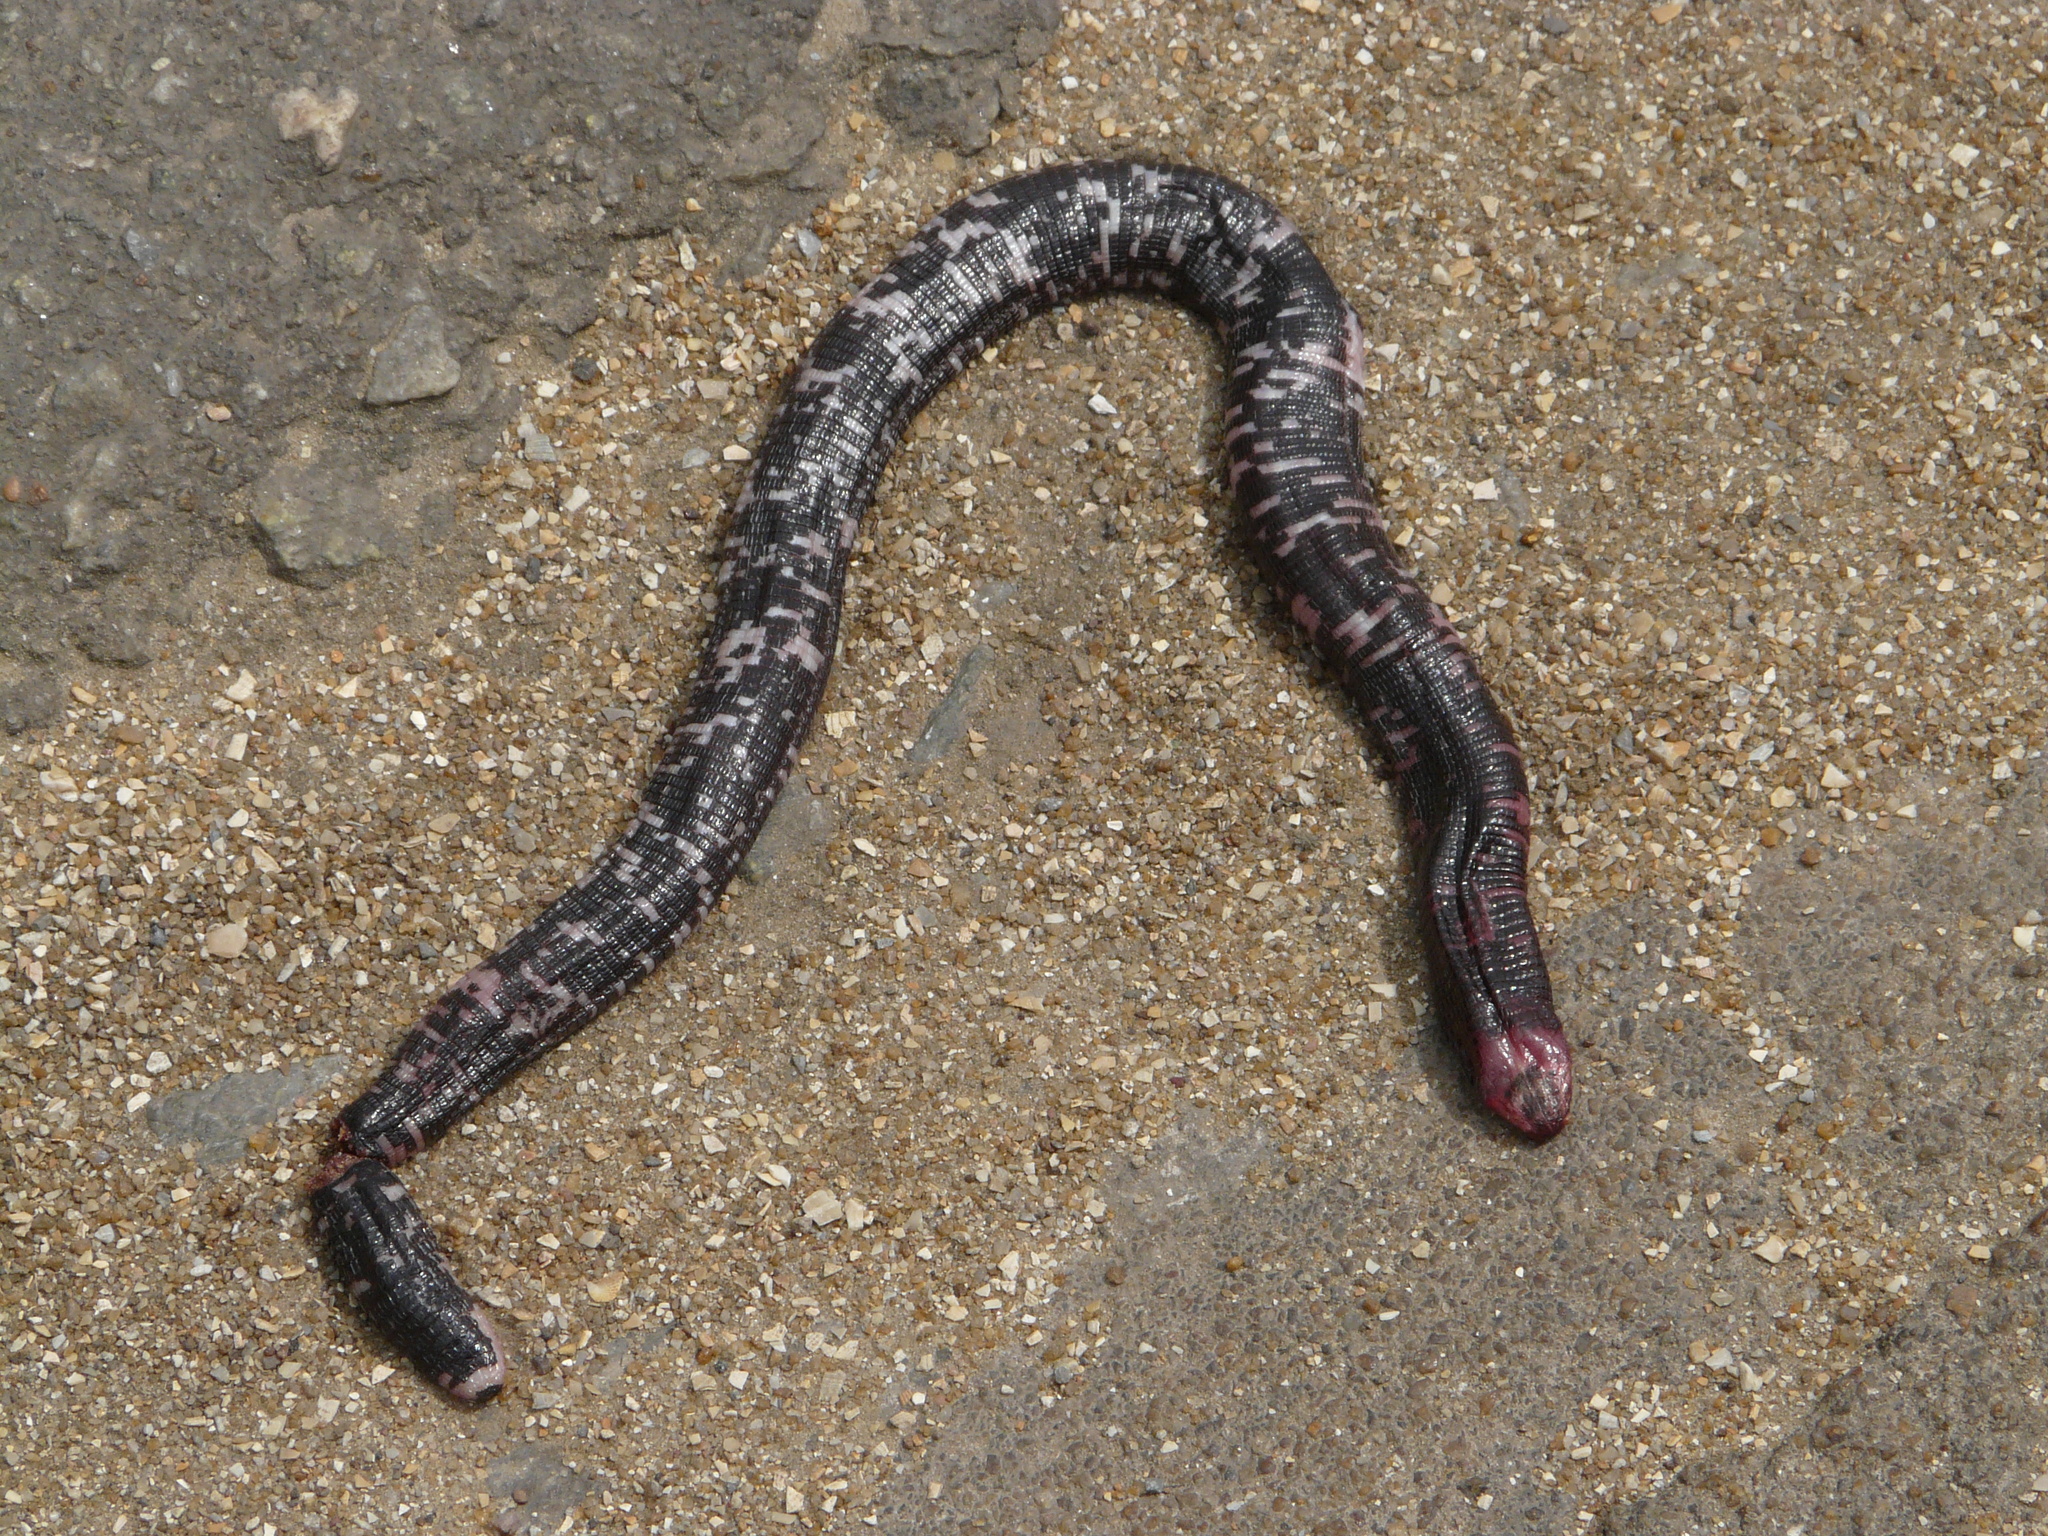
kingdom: Animalia
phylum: Chordata
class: Squamata
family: Amphisbaenidae
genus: Amphisbaena
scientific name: Amphisbaena fuliginosa
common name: Speckled worm lizard
